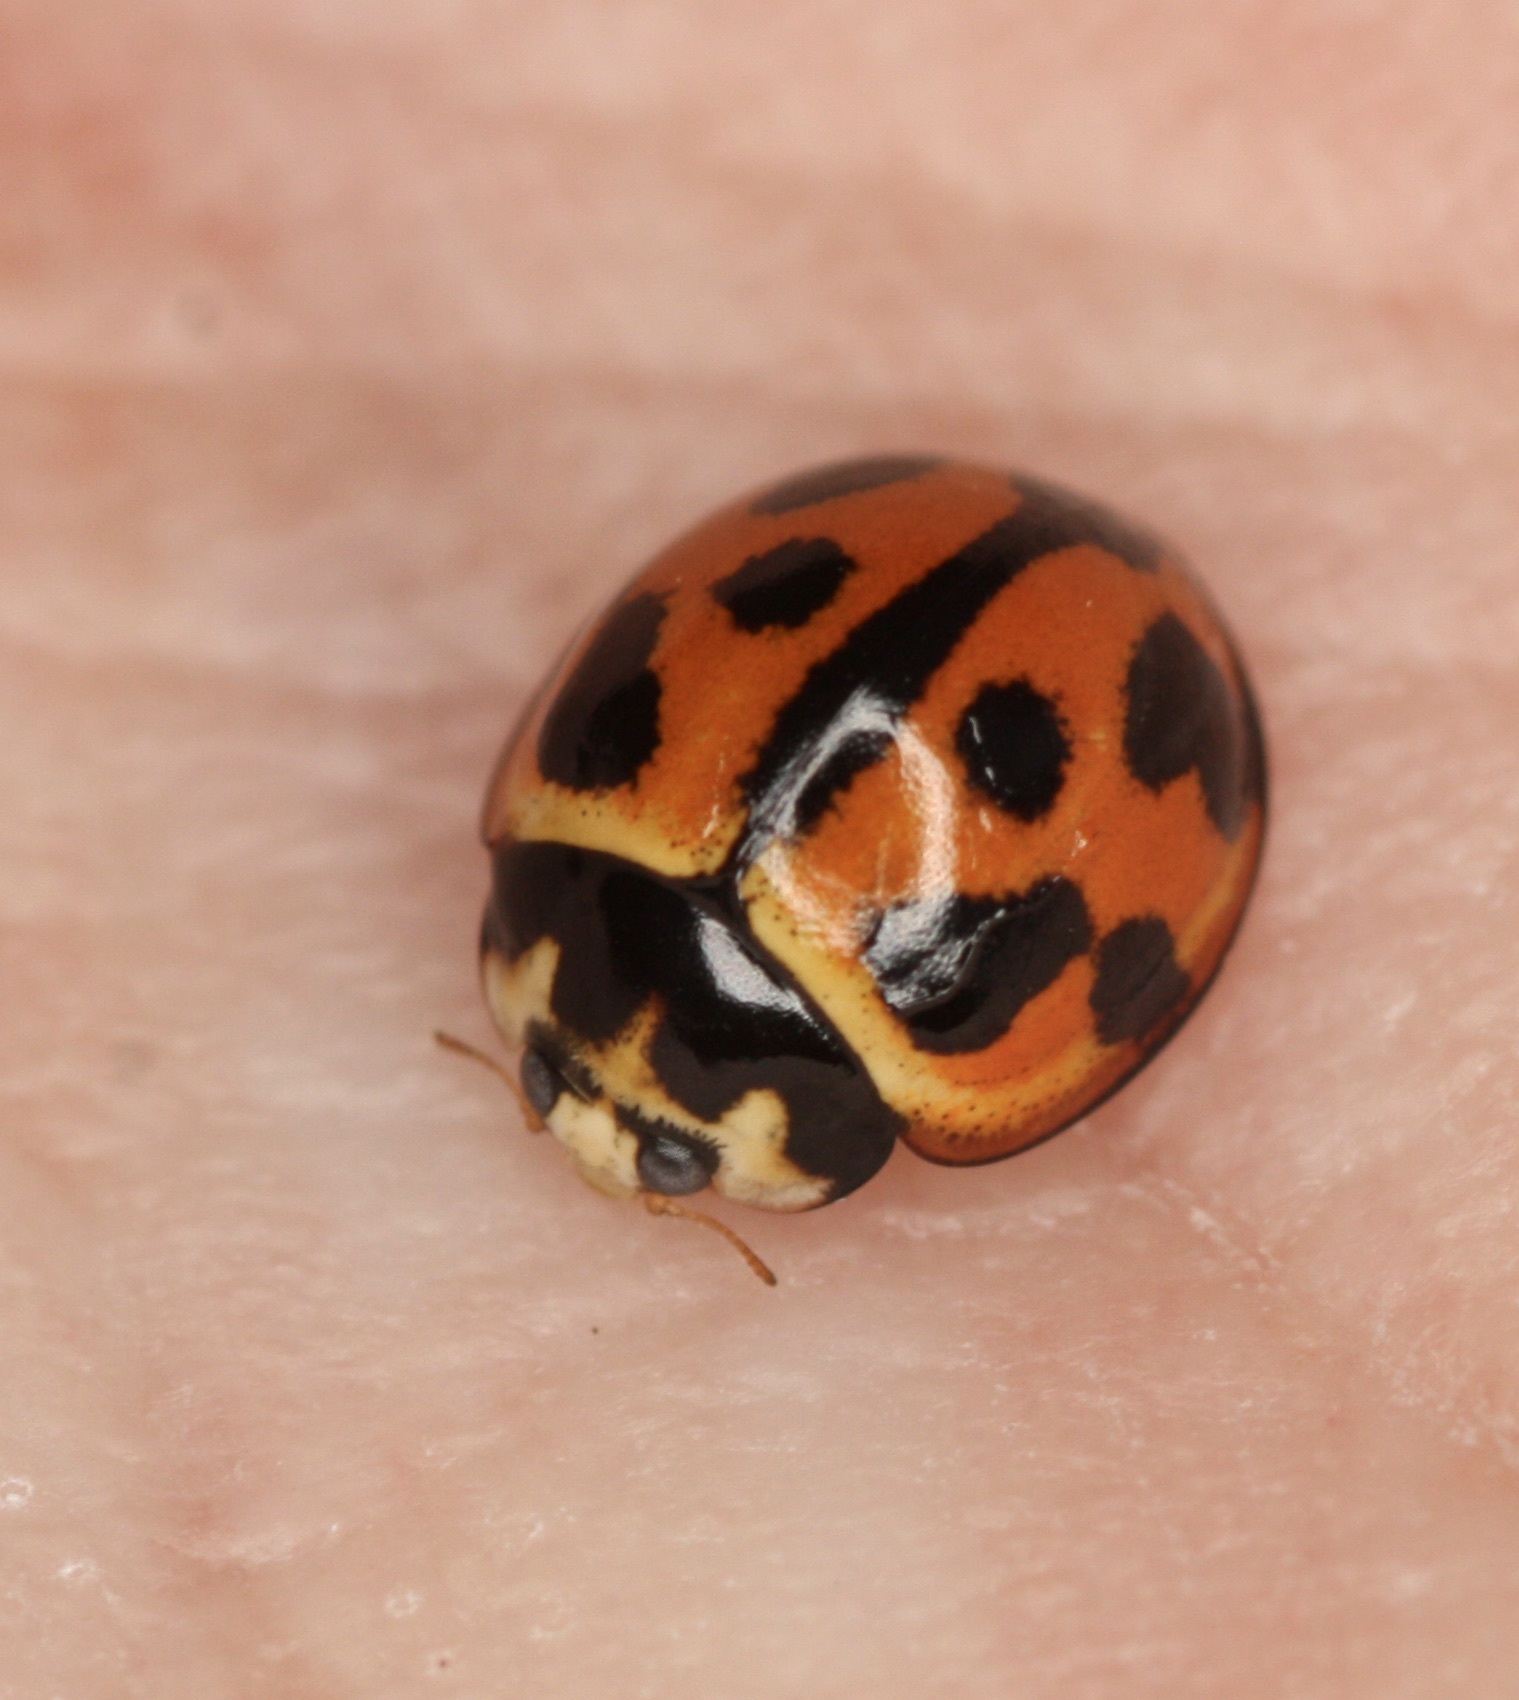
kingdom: Animalia
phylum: Arthropoda
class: Insecta
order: Coleoptera
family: Coccinellidae
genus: Coelophora
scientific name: Coelophora inaequalis
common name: Common australian lady beetle
